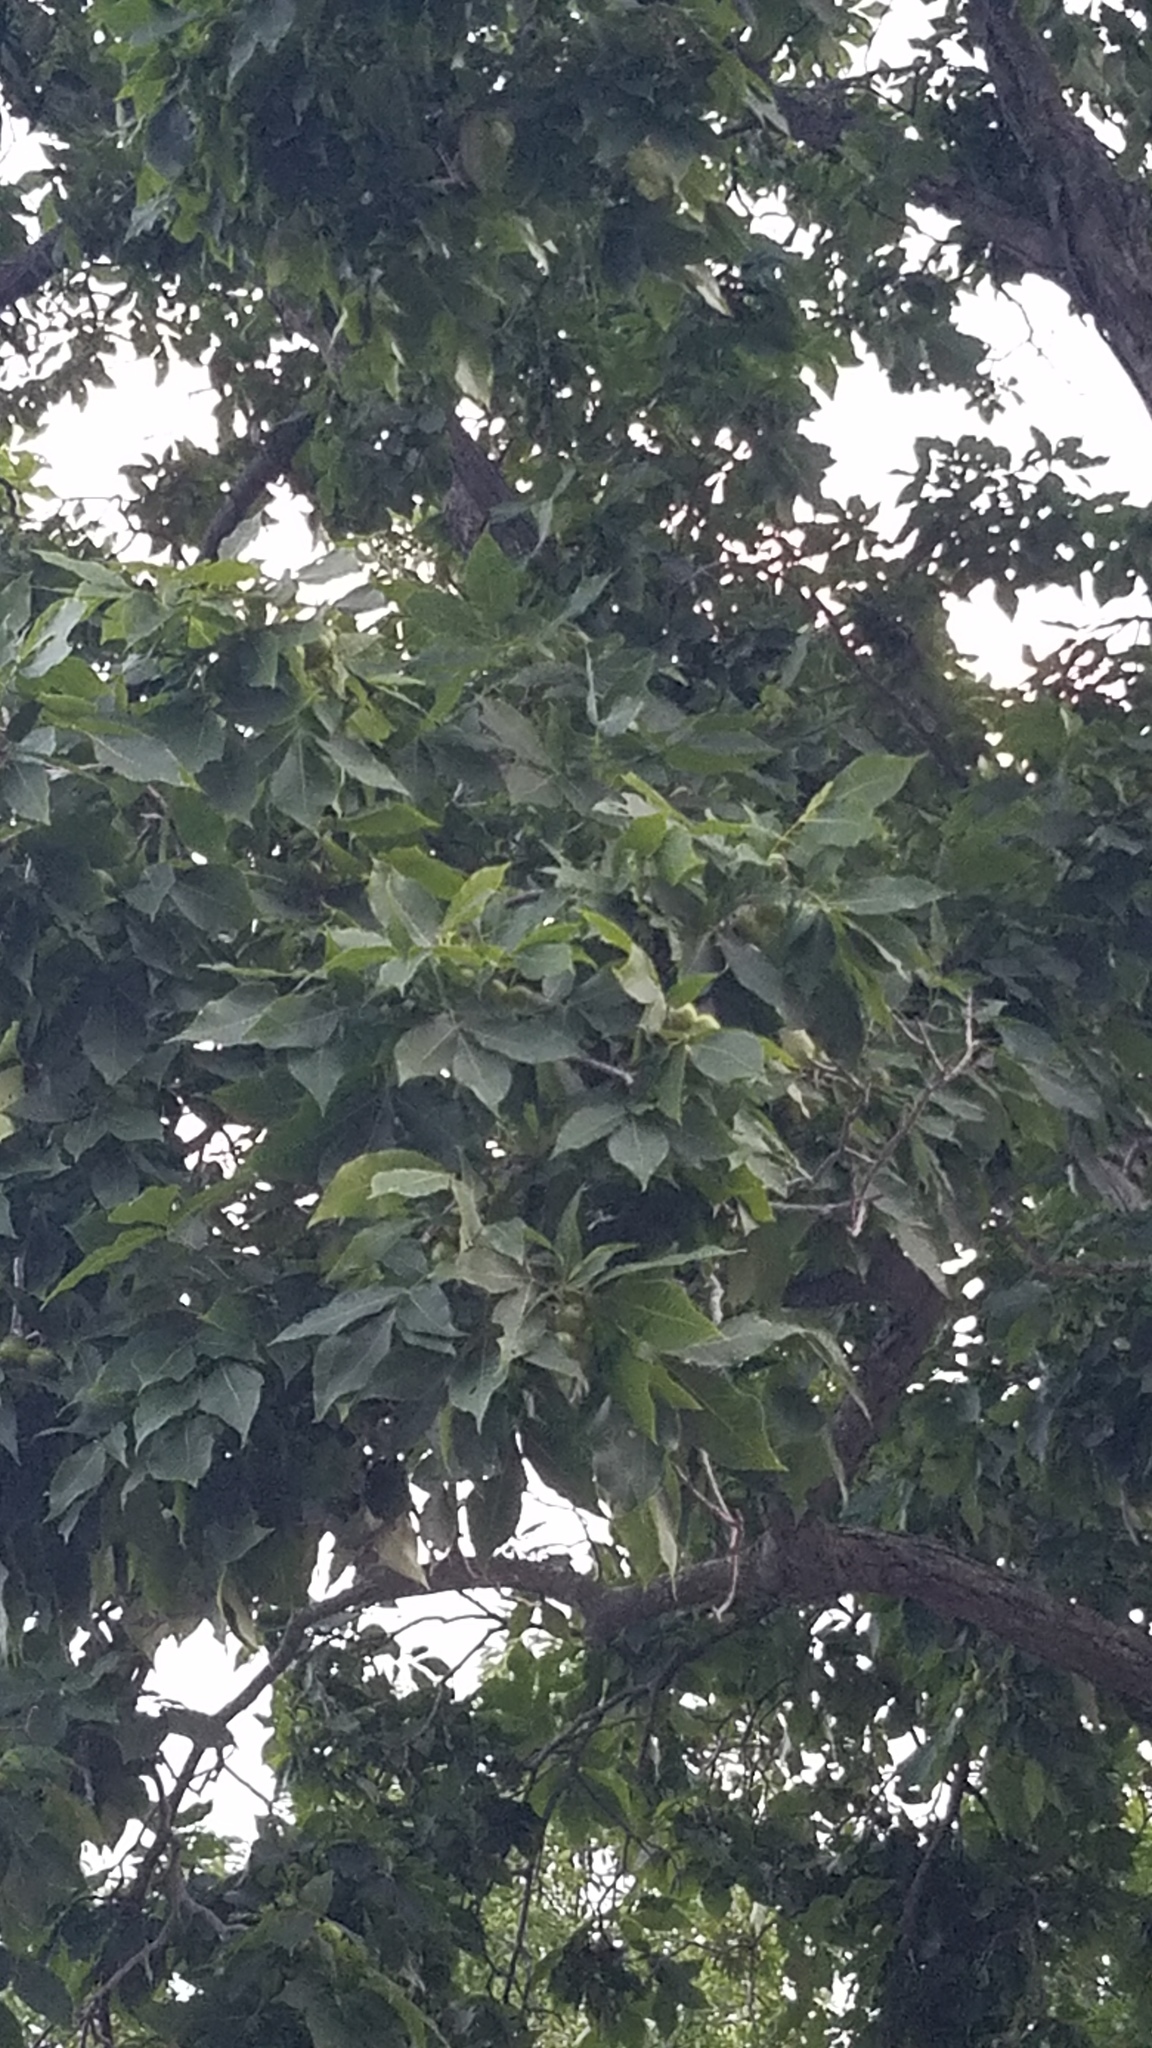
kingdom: Plantae
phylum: Tracheophyta
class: Magnoliopsida
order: Fagales
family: Juglandaceae
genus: Carya
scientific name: Carya ovata
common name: Shagbark hickory
